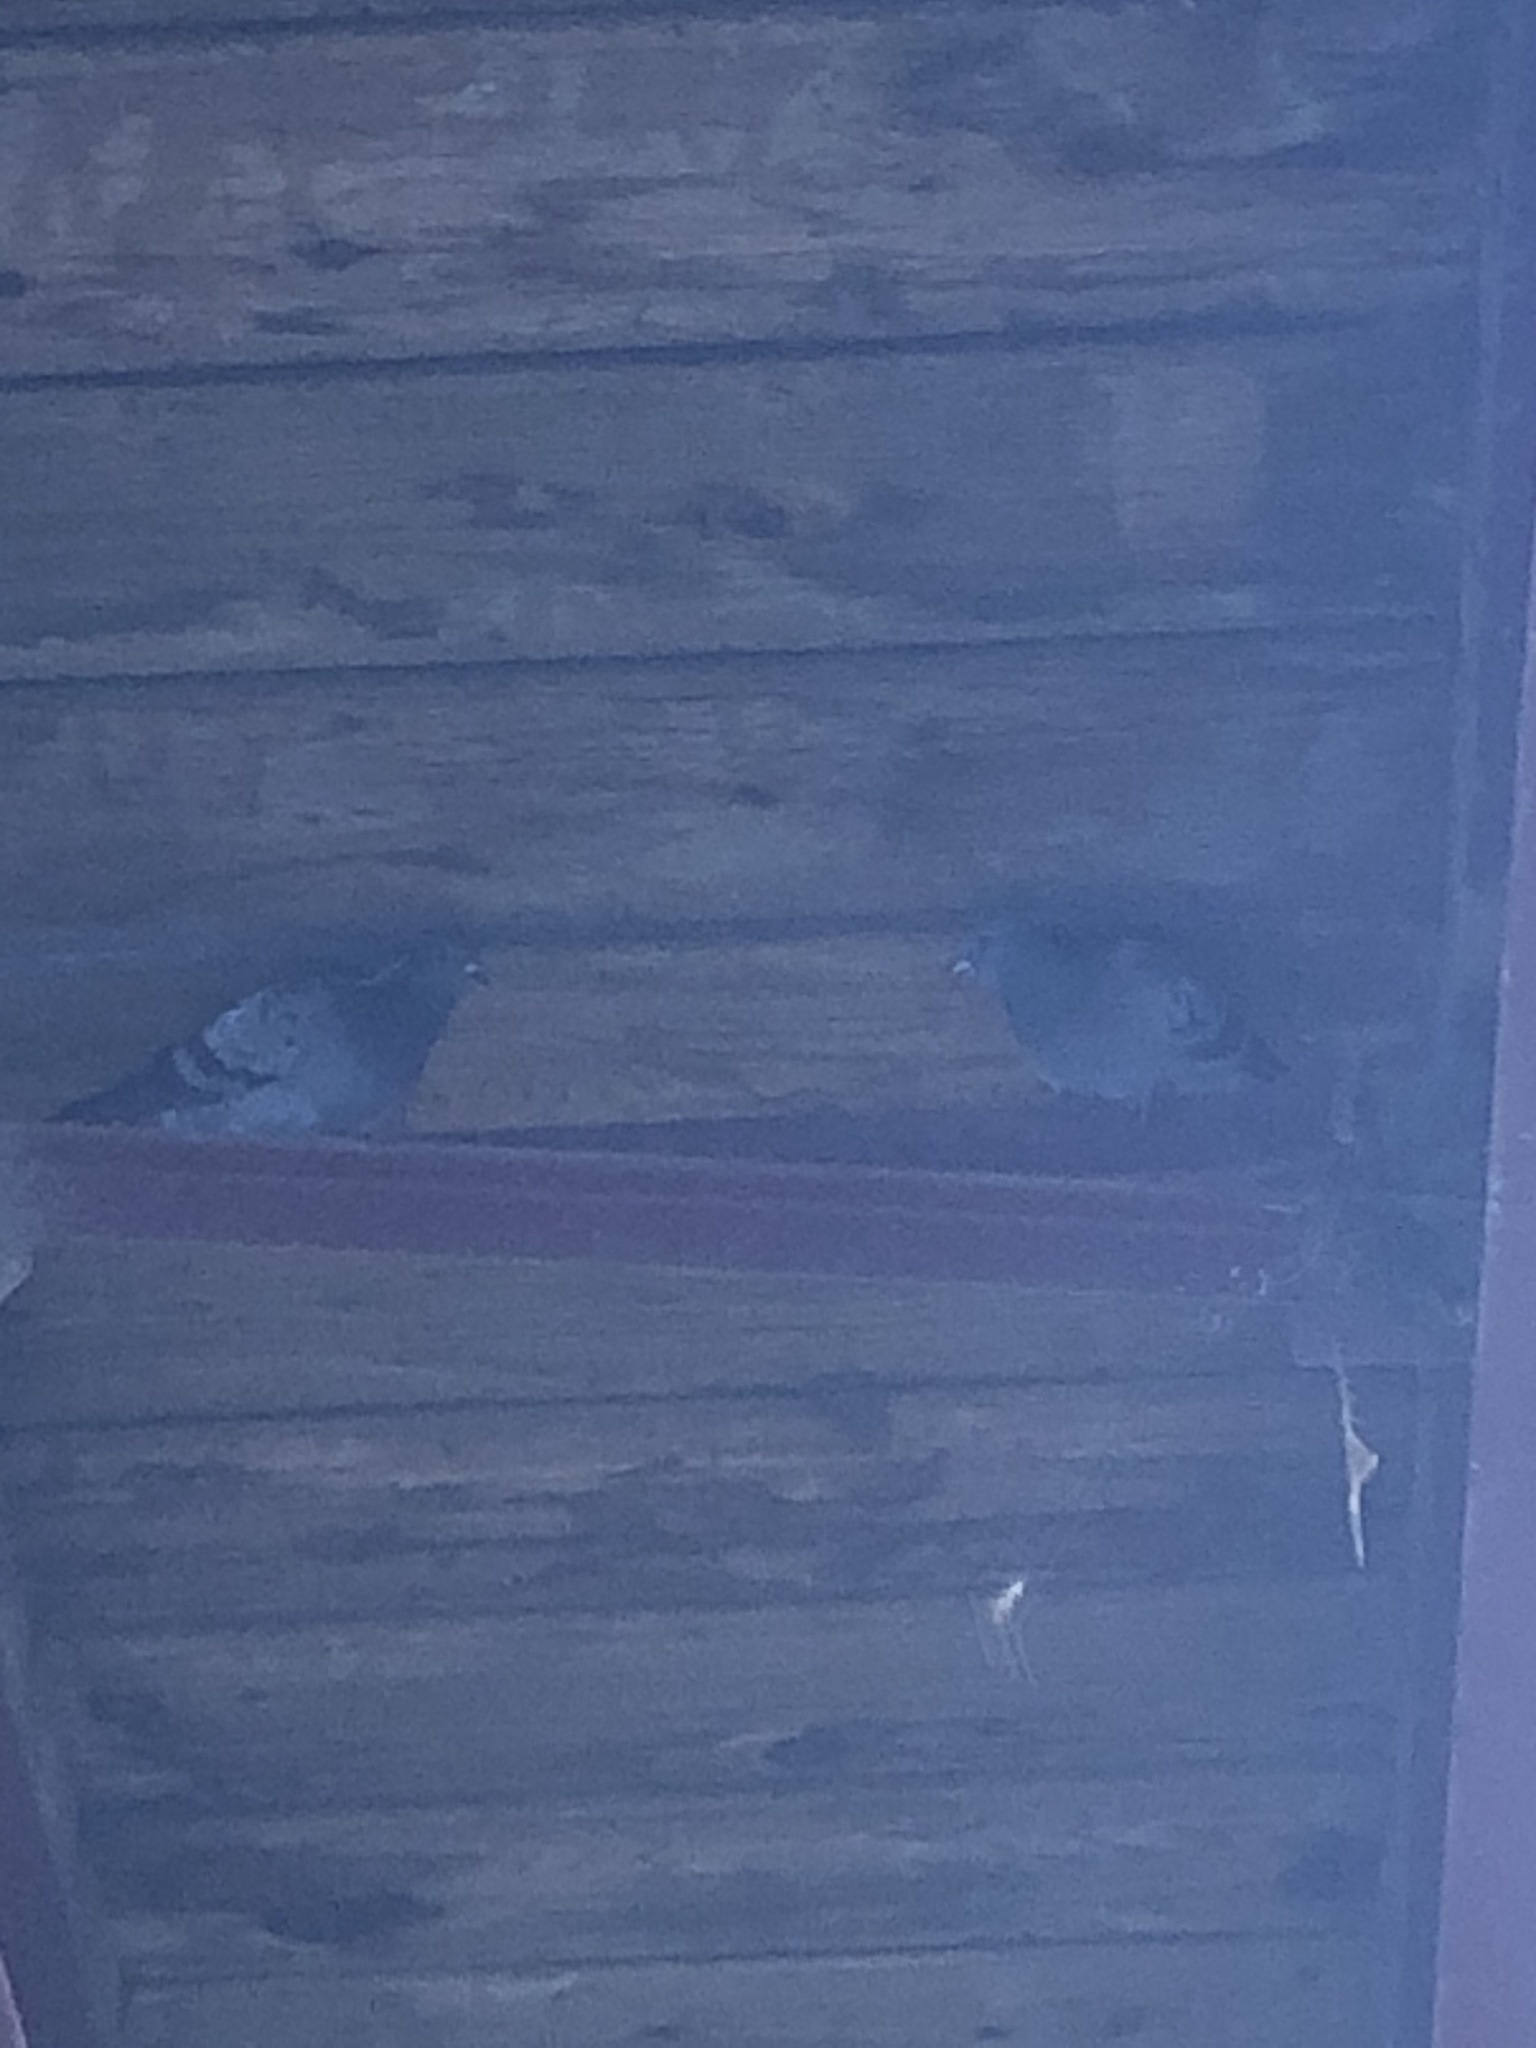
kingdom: Animalia
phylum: Chordata
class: Aves
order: Columbiformes
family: Columbidae
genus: Columba
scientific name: Columba livia
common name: Rock pigeon
